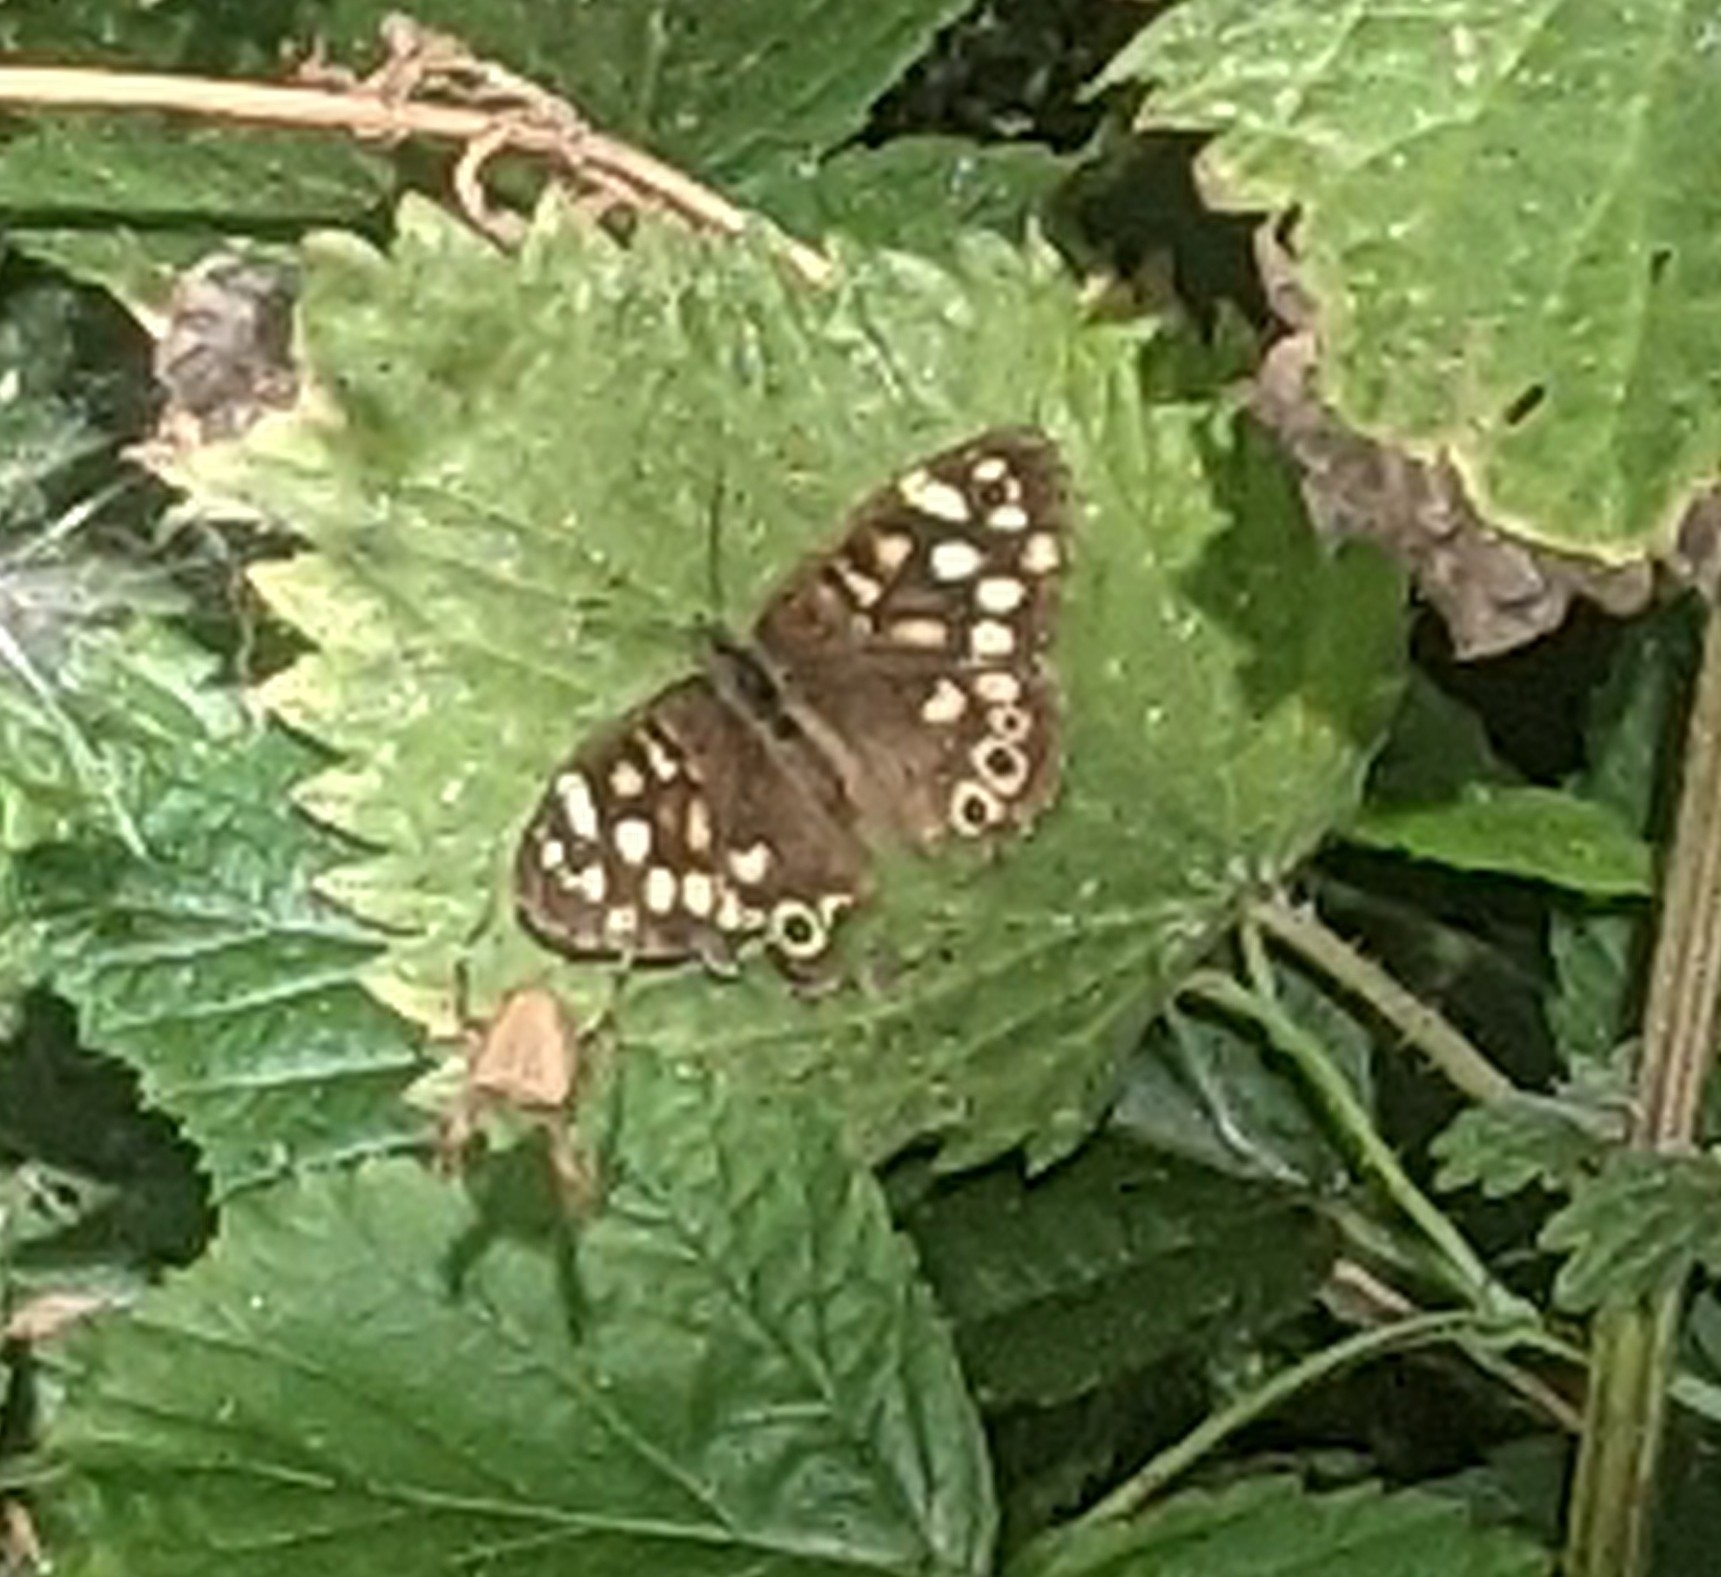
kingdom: Animalia
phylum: Arthropoda
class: Insecta
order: Lepidoptera
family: Nymphalidae
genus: Pararge
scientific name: Pararge aegeria
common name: Speckled wood
